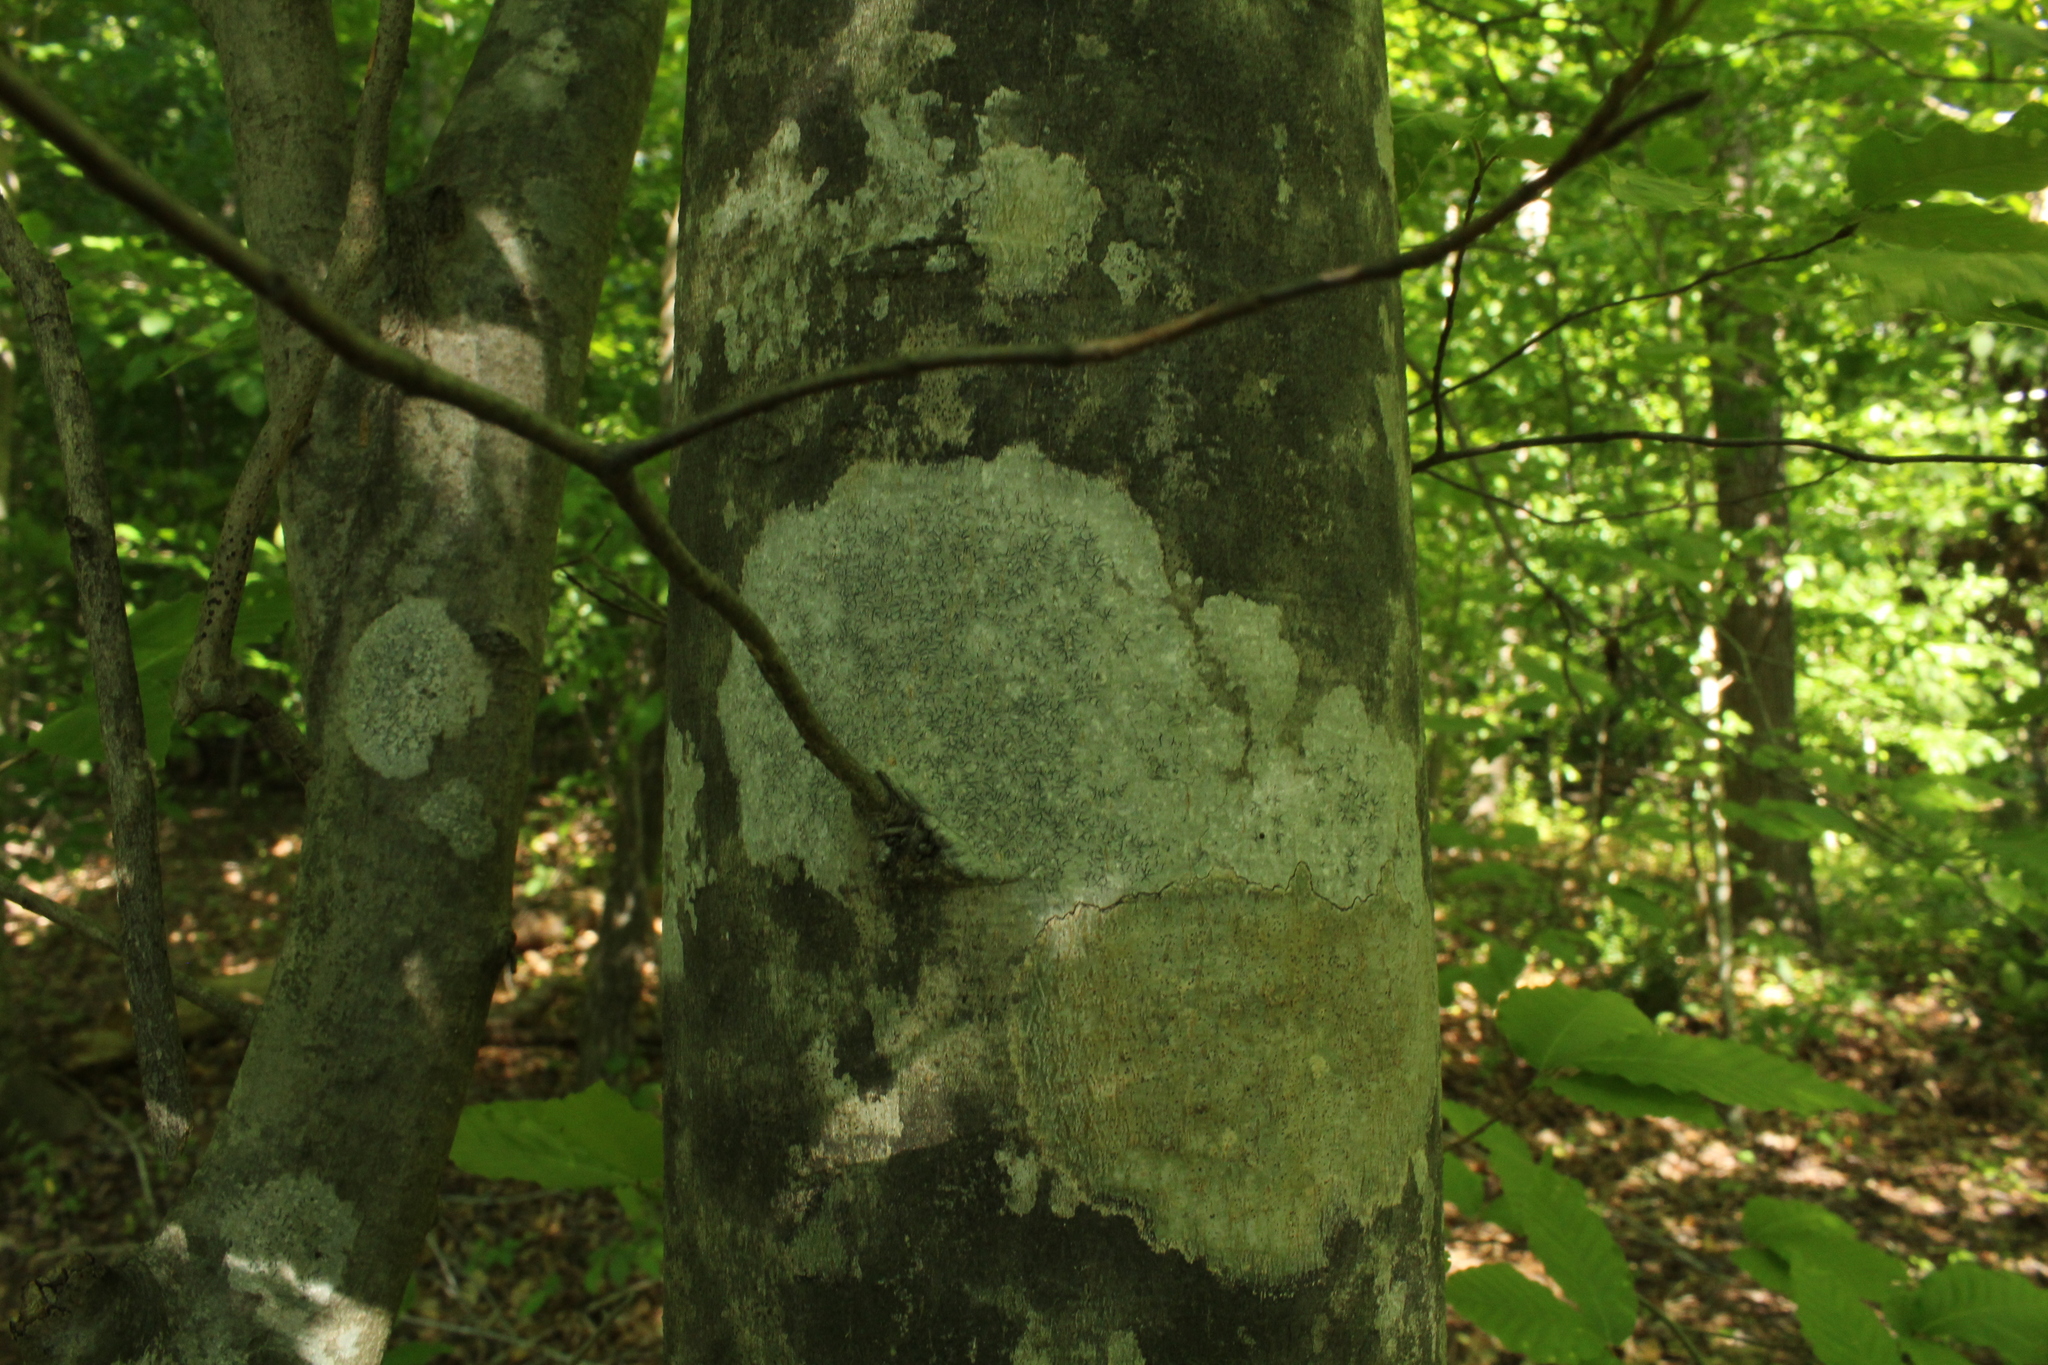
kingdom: Fungi
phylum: Ascomycota
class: Lecanoromycetes
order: Ostropales
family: Graphidaceae
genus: Graphis
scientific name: Graphis scripta
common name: Script lichen
